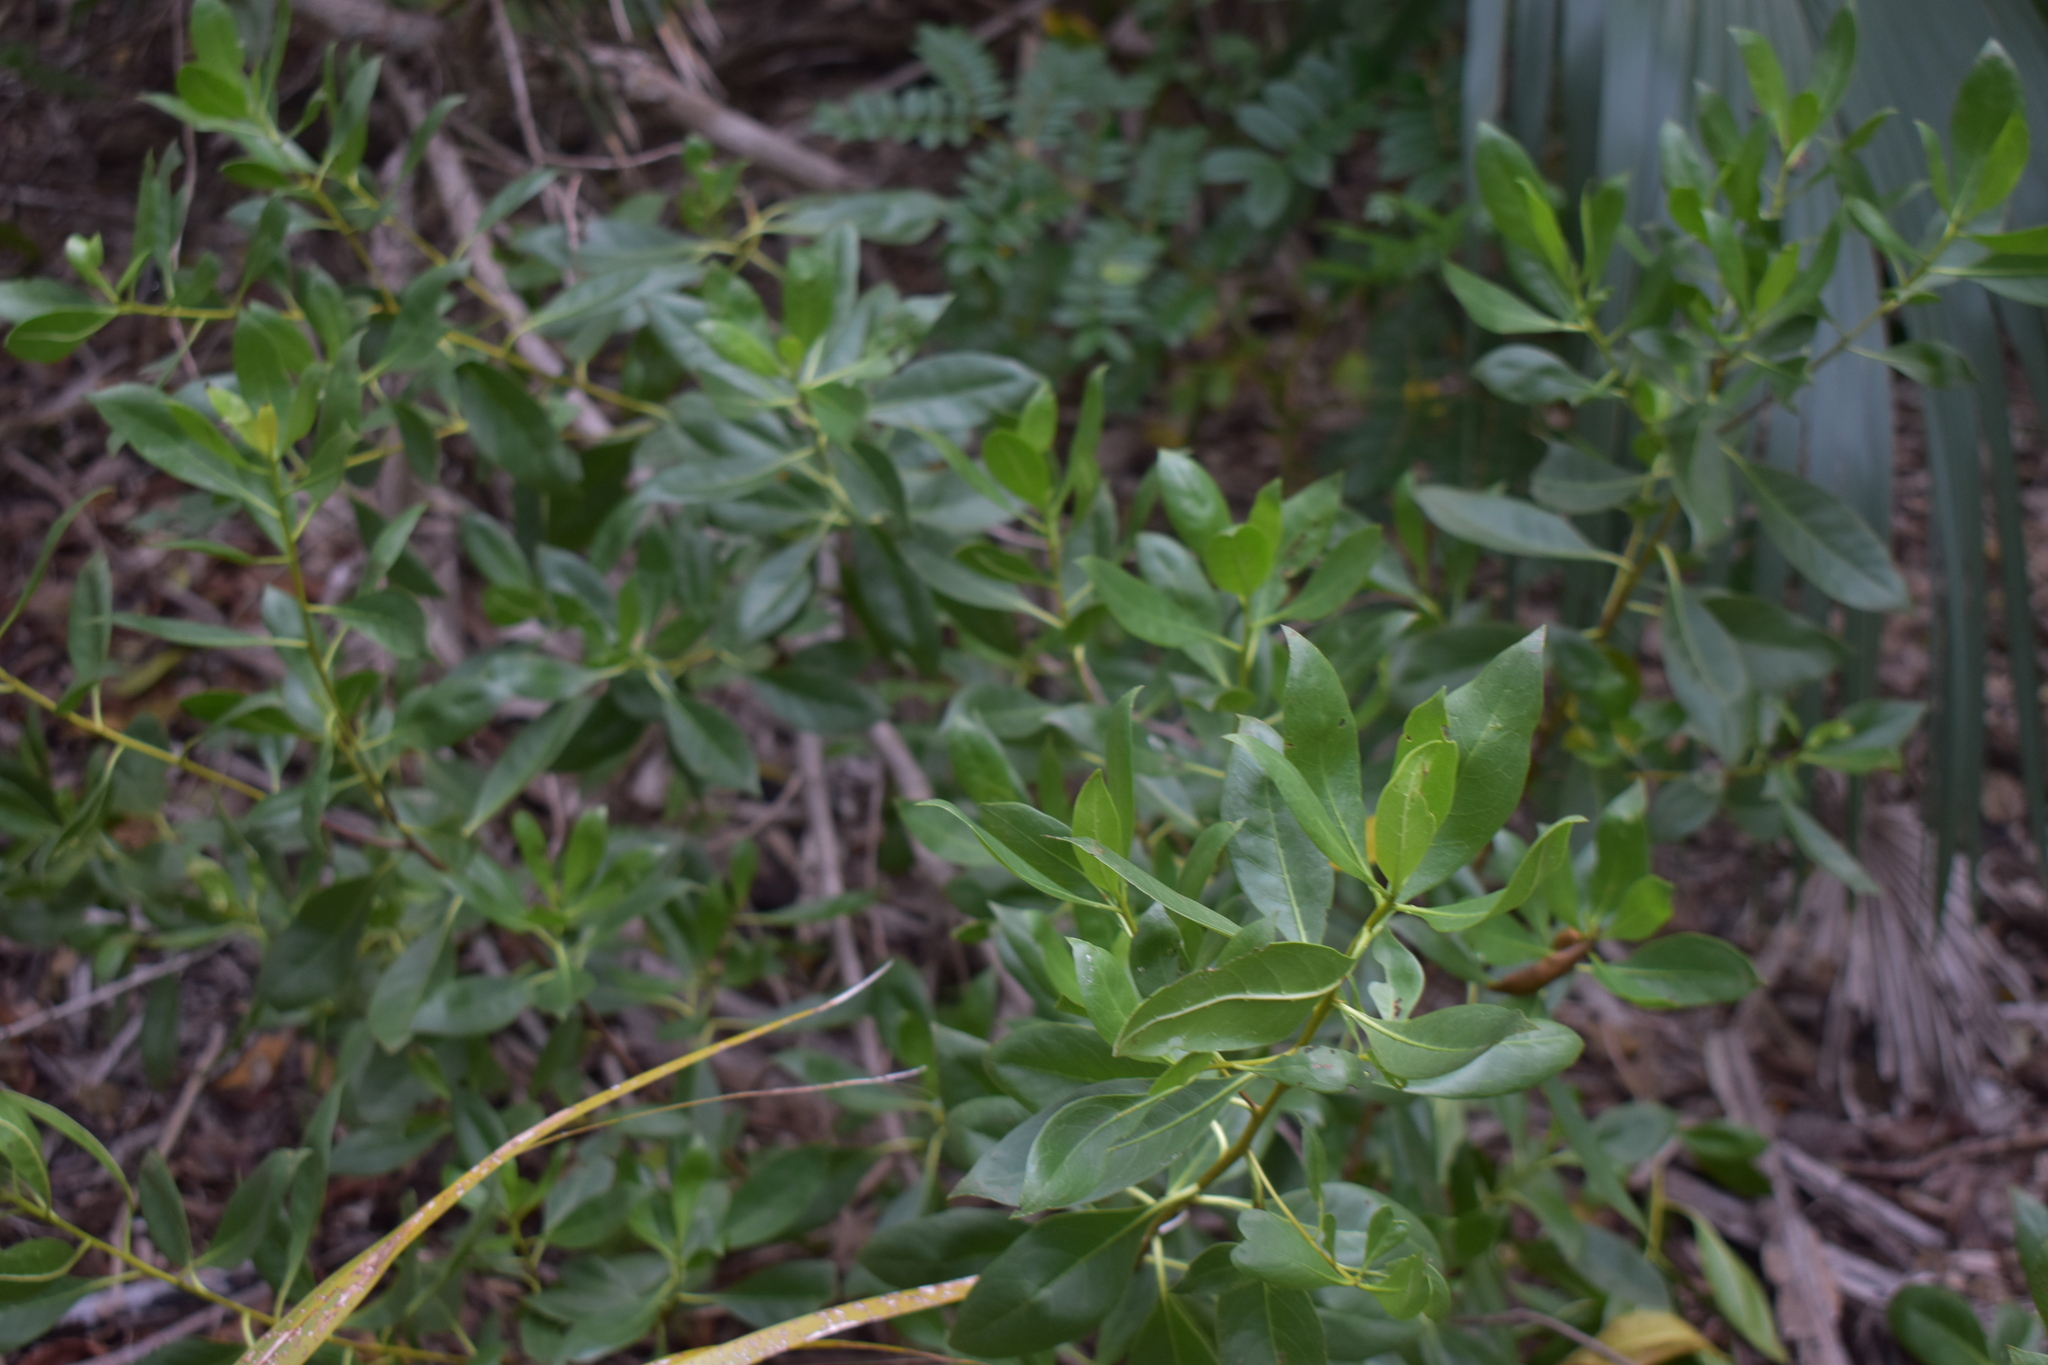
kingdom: Plantae
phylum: Tracheophyta
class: Magnoliopsida
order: Myrtales
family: Combretaceae
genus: Conocarpus
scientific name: Conocarpus erectus
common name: Button mangrove
